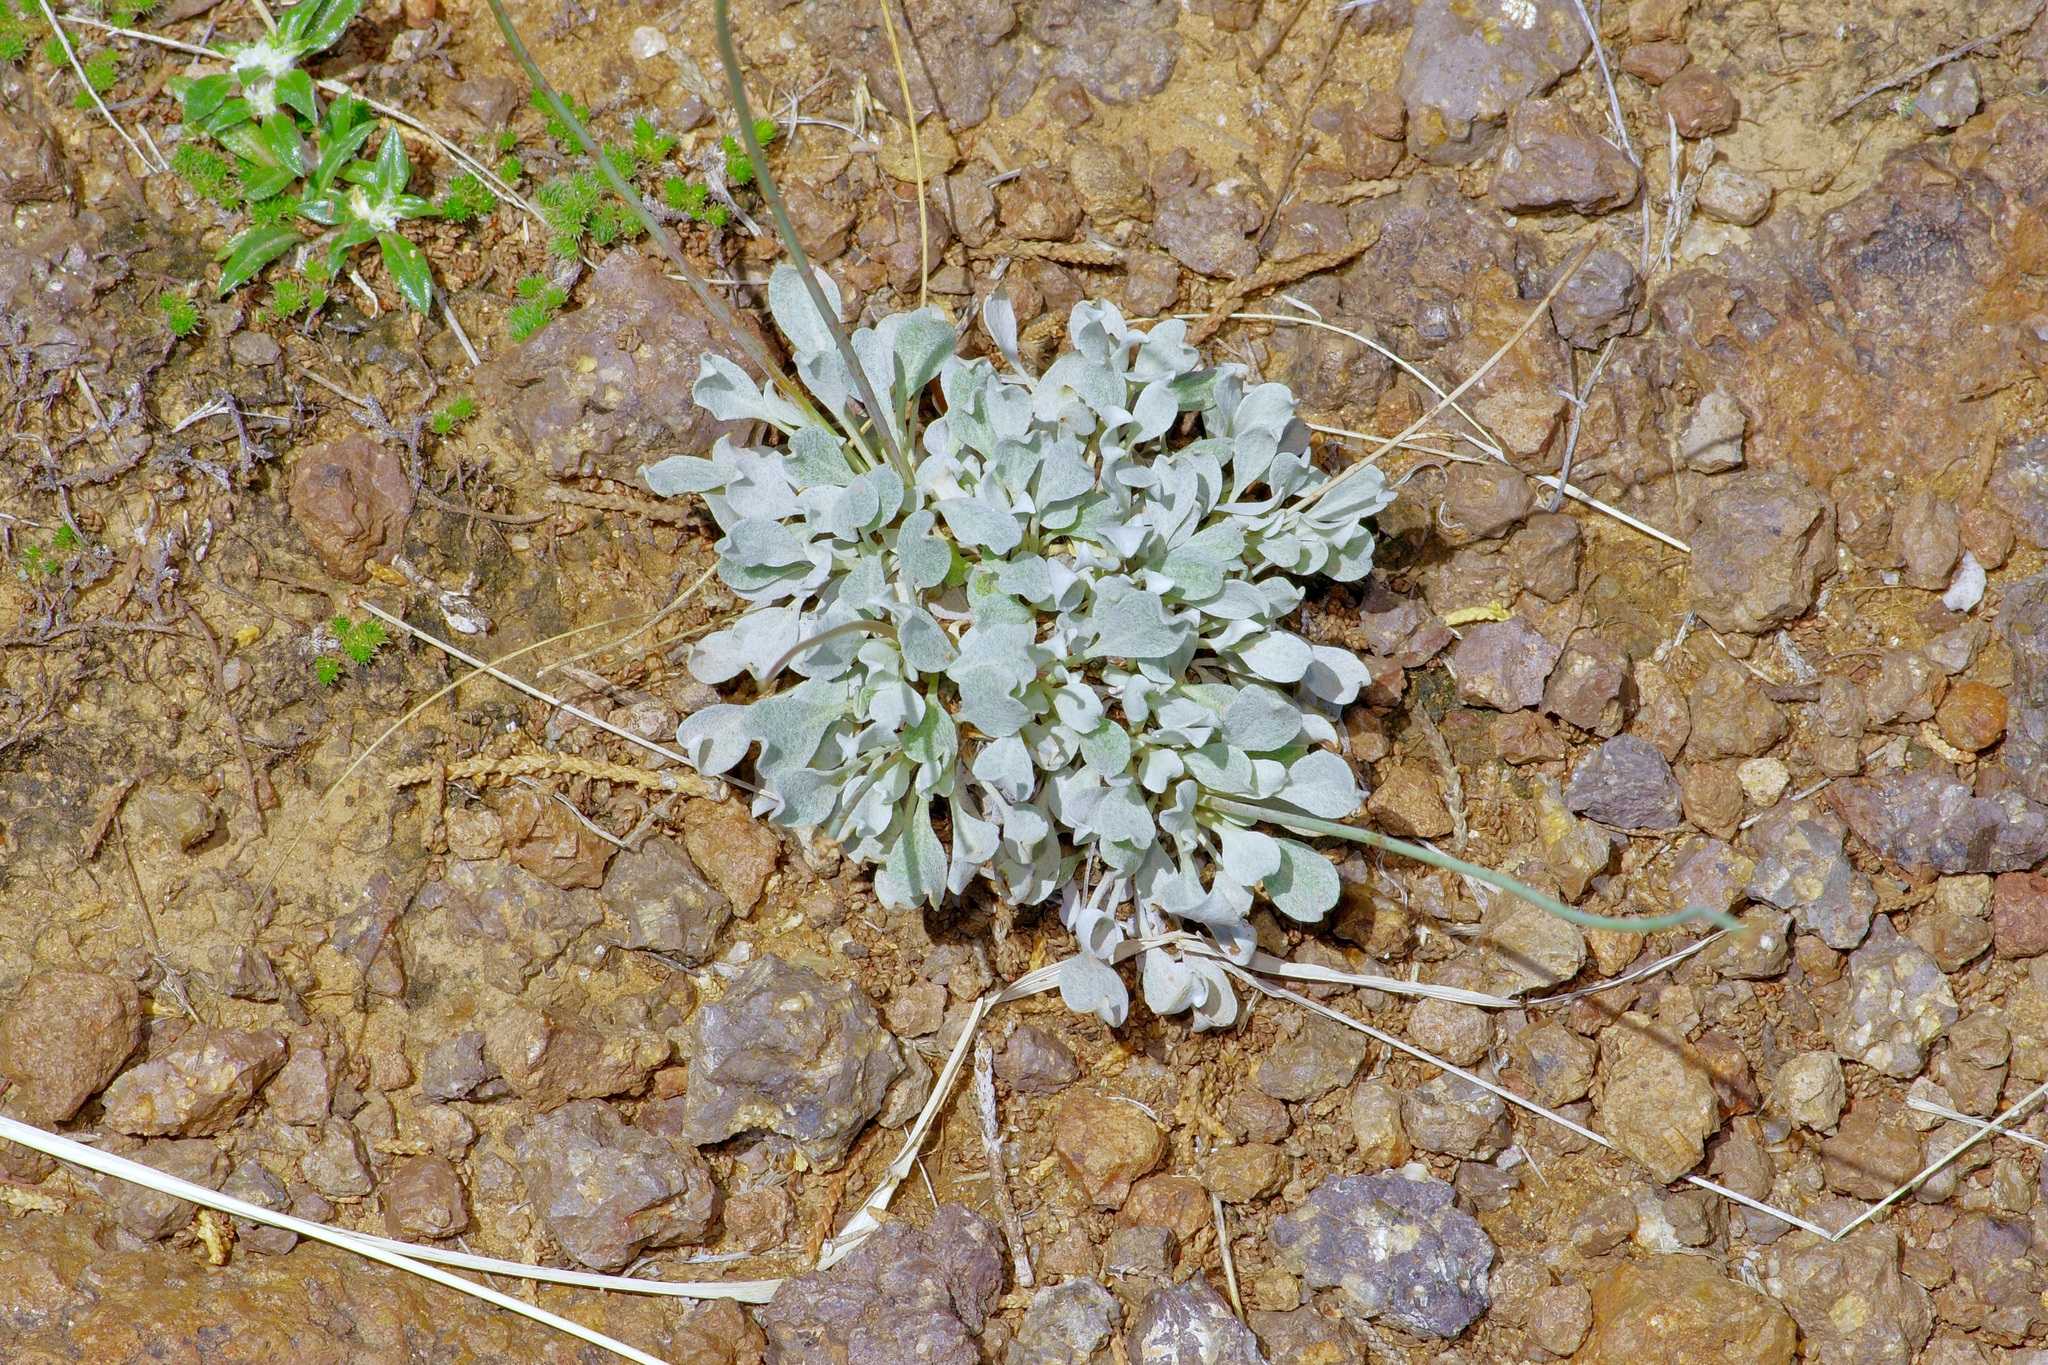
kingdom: Plantae
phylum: Tracheophyta
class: Magnoliopsida
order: Caryophyllales
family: Polygonaceae
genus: Eriogonum
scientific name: Eriogonum tenellum
